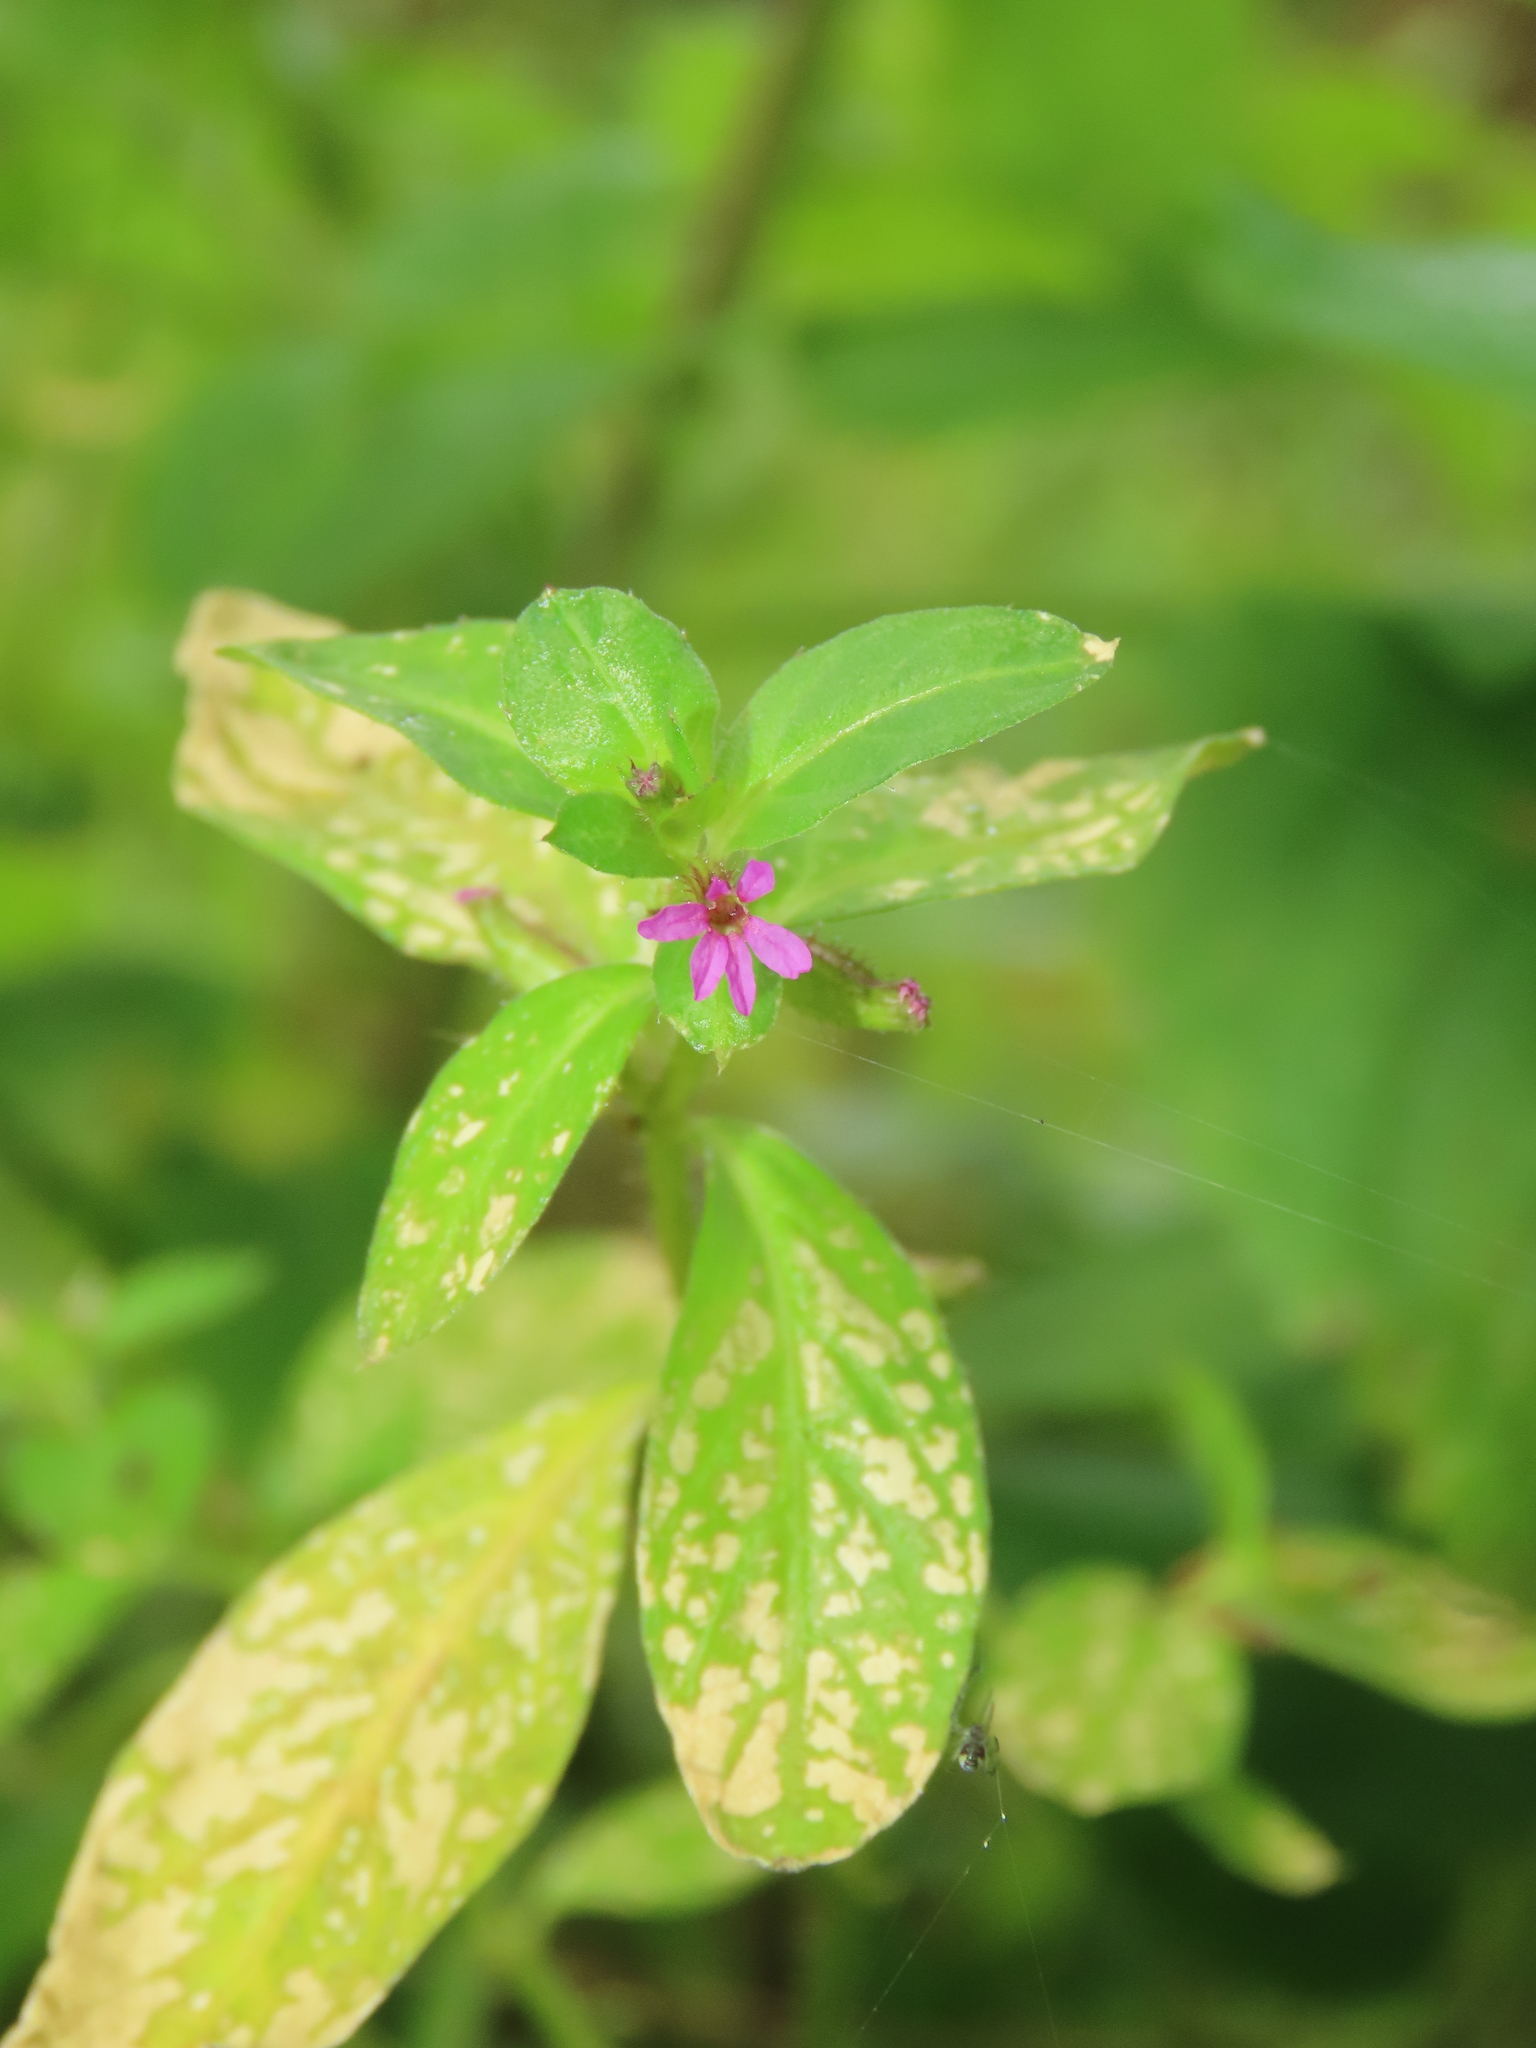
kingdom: Plantae
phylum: Tracheophyta
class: Magnoliopsida
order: Myrtales
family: Lythraceae
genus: Cuphea
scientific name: Cuphea carthagenensis
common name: Colombian waxweed
